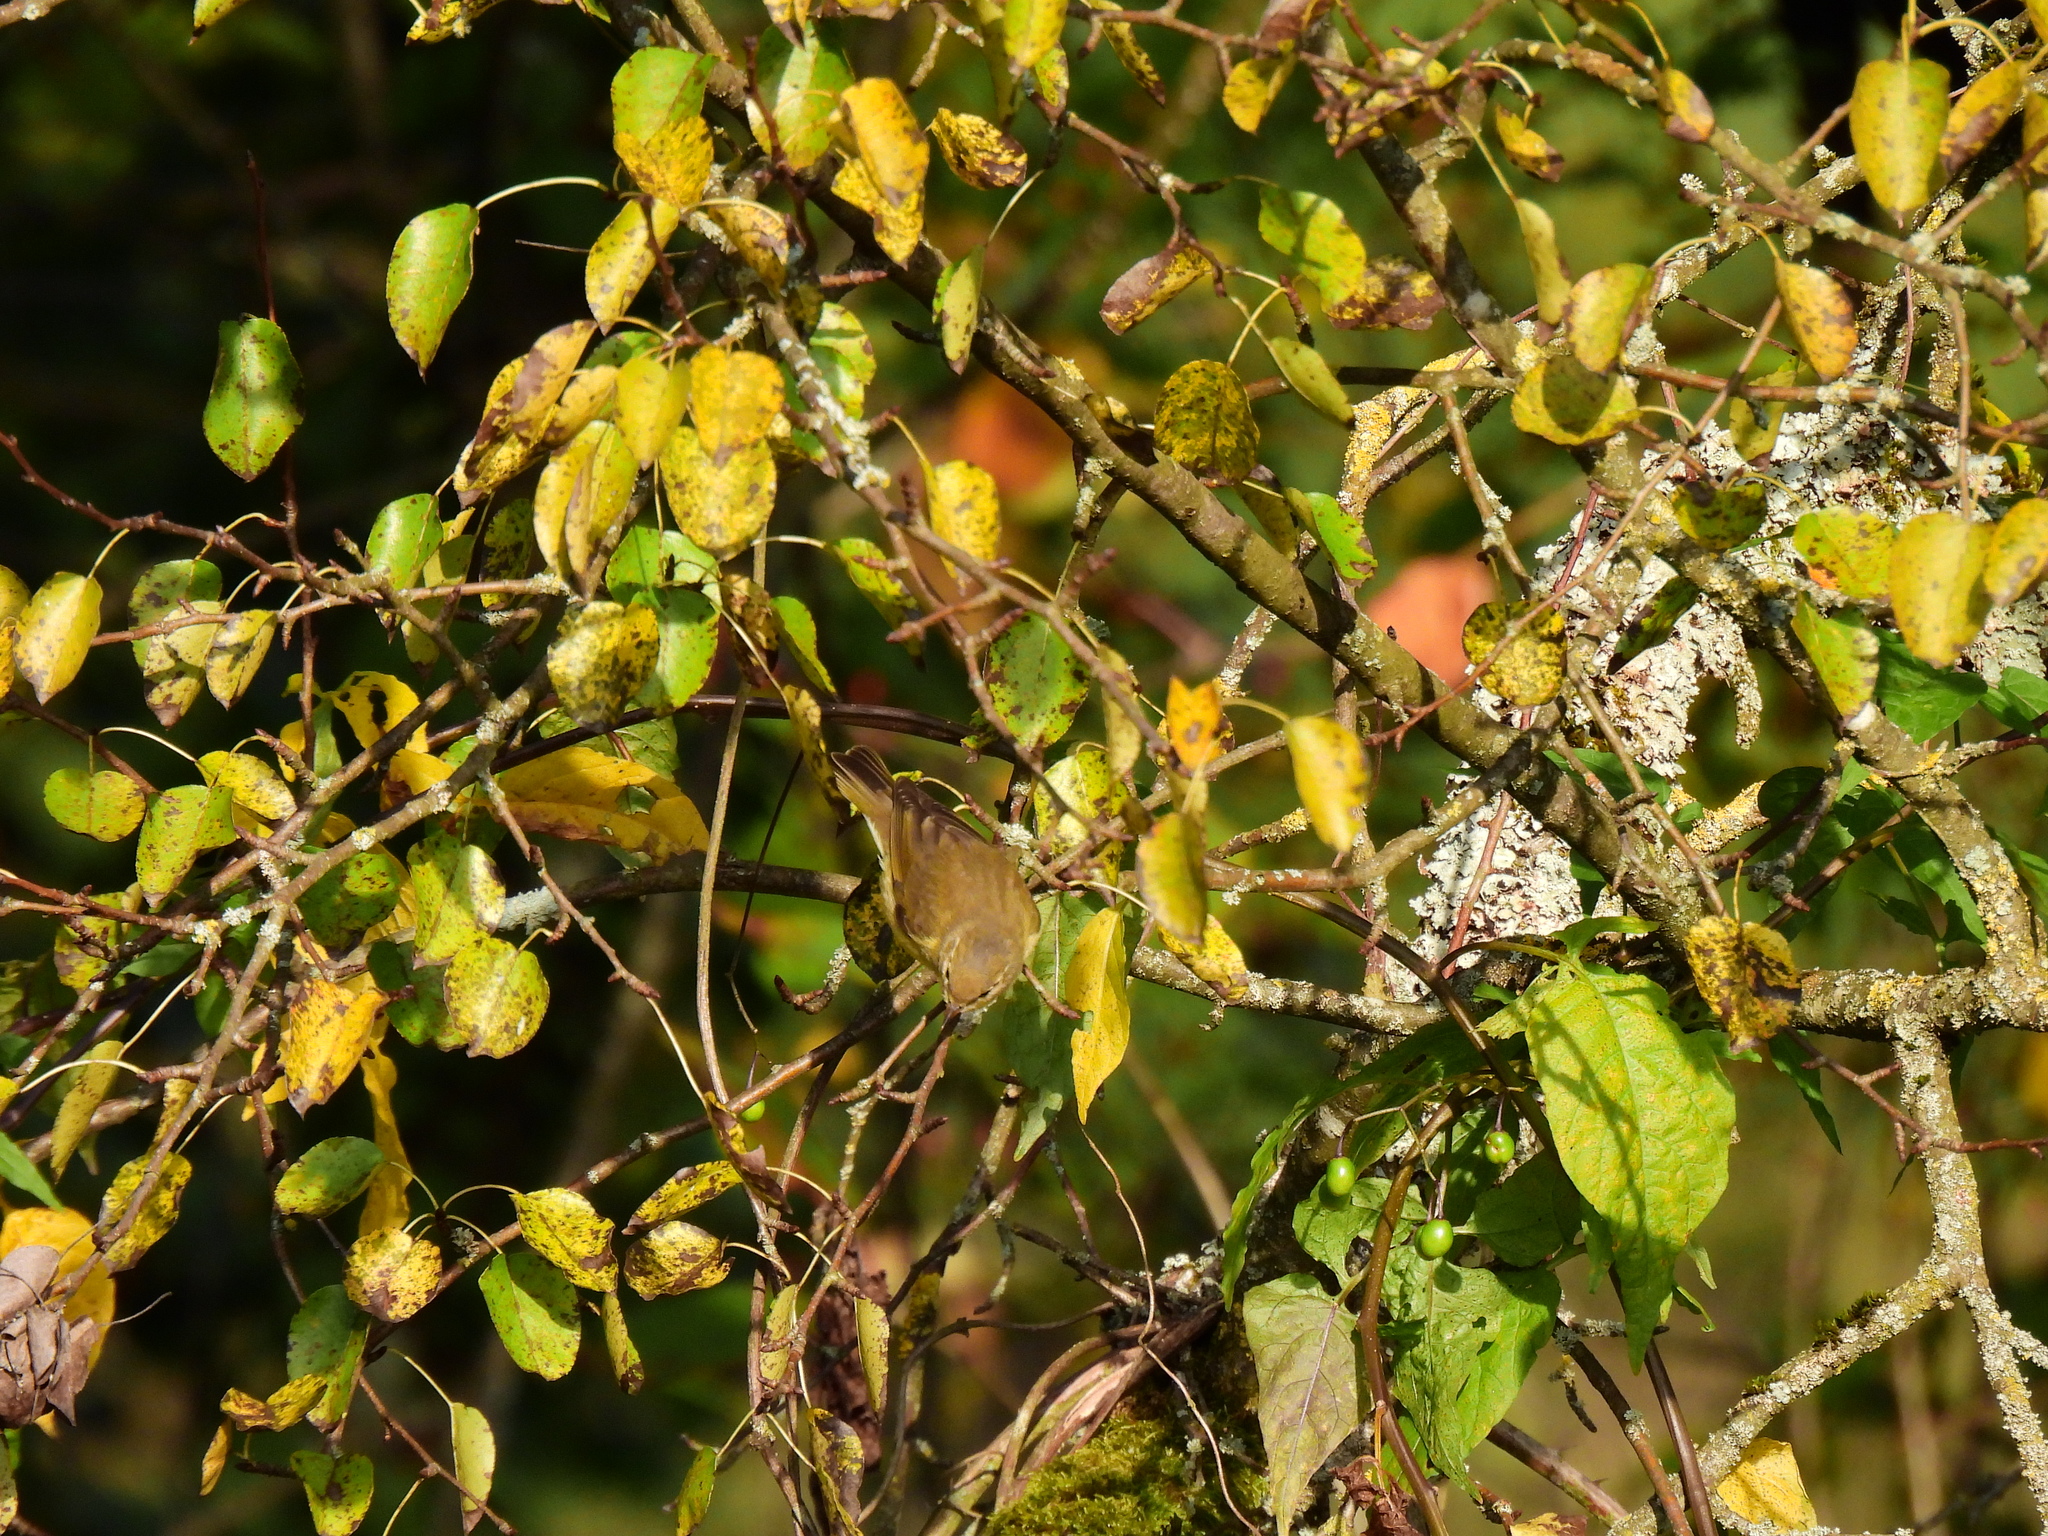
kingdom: Animalia
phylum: Chordata
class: Aves
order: Passeriformes
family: Phylloscopidae
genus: Phylloscopus
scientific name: Phylloscopus collybita
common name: Common chiffchaff
